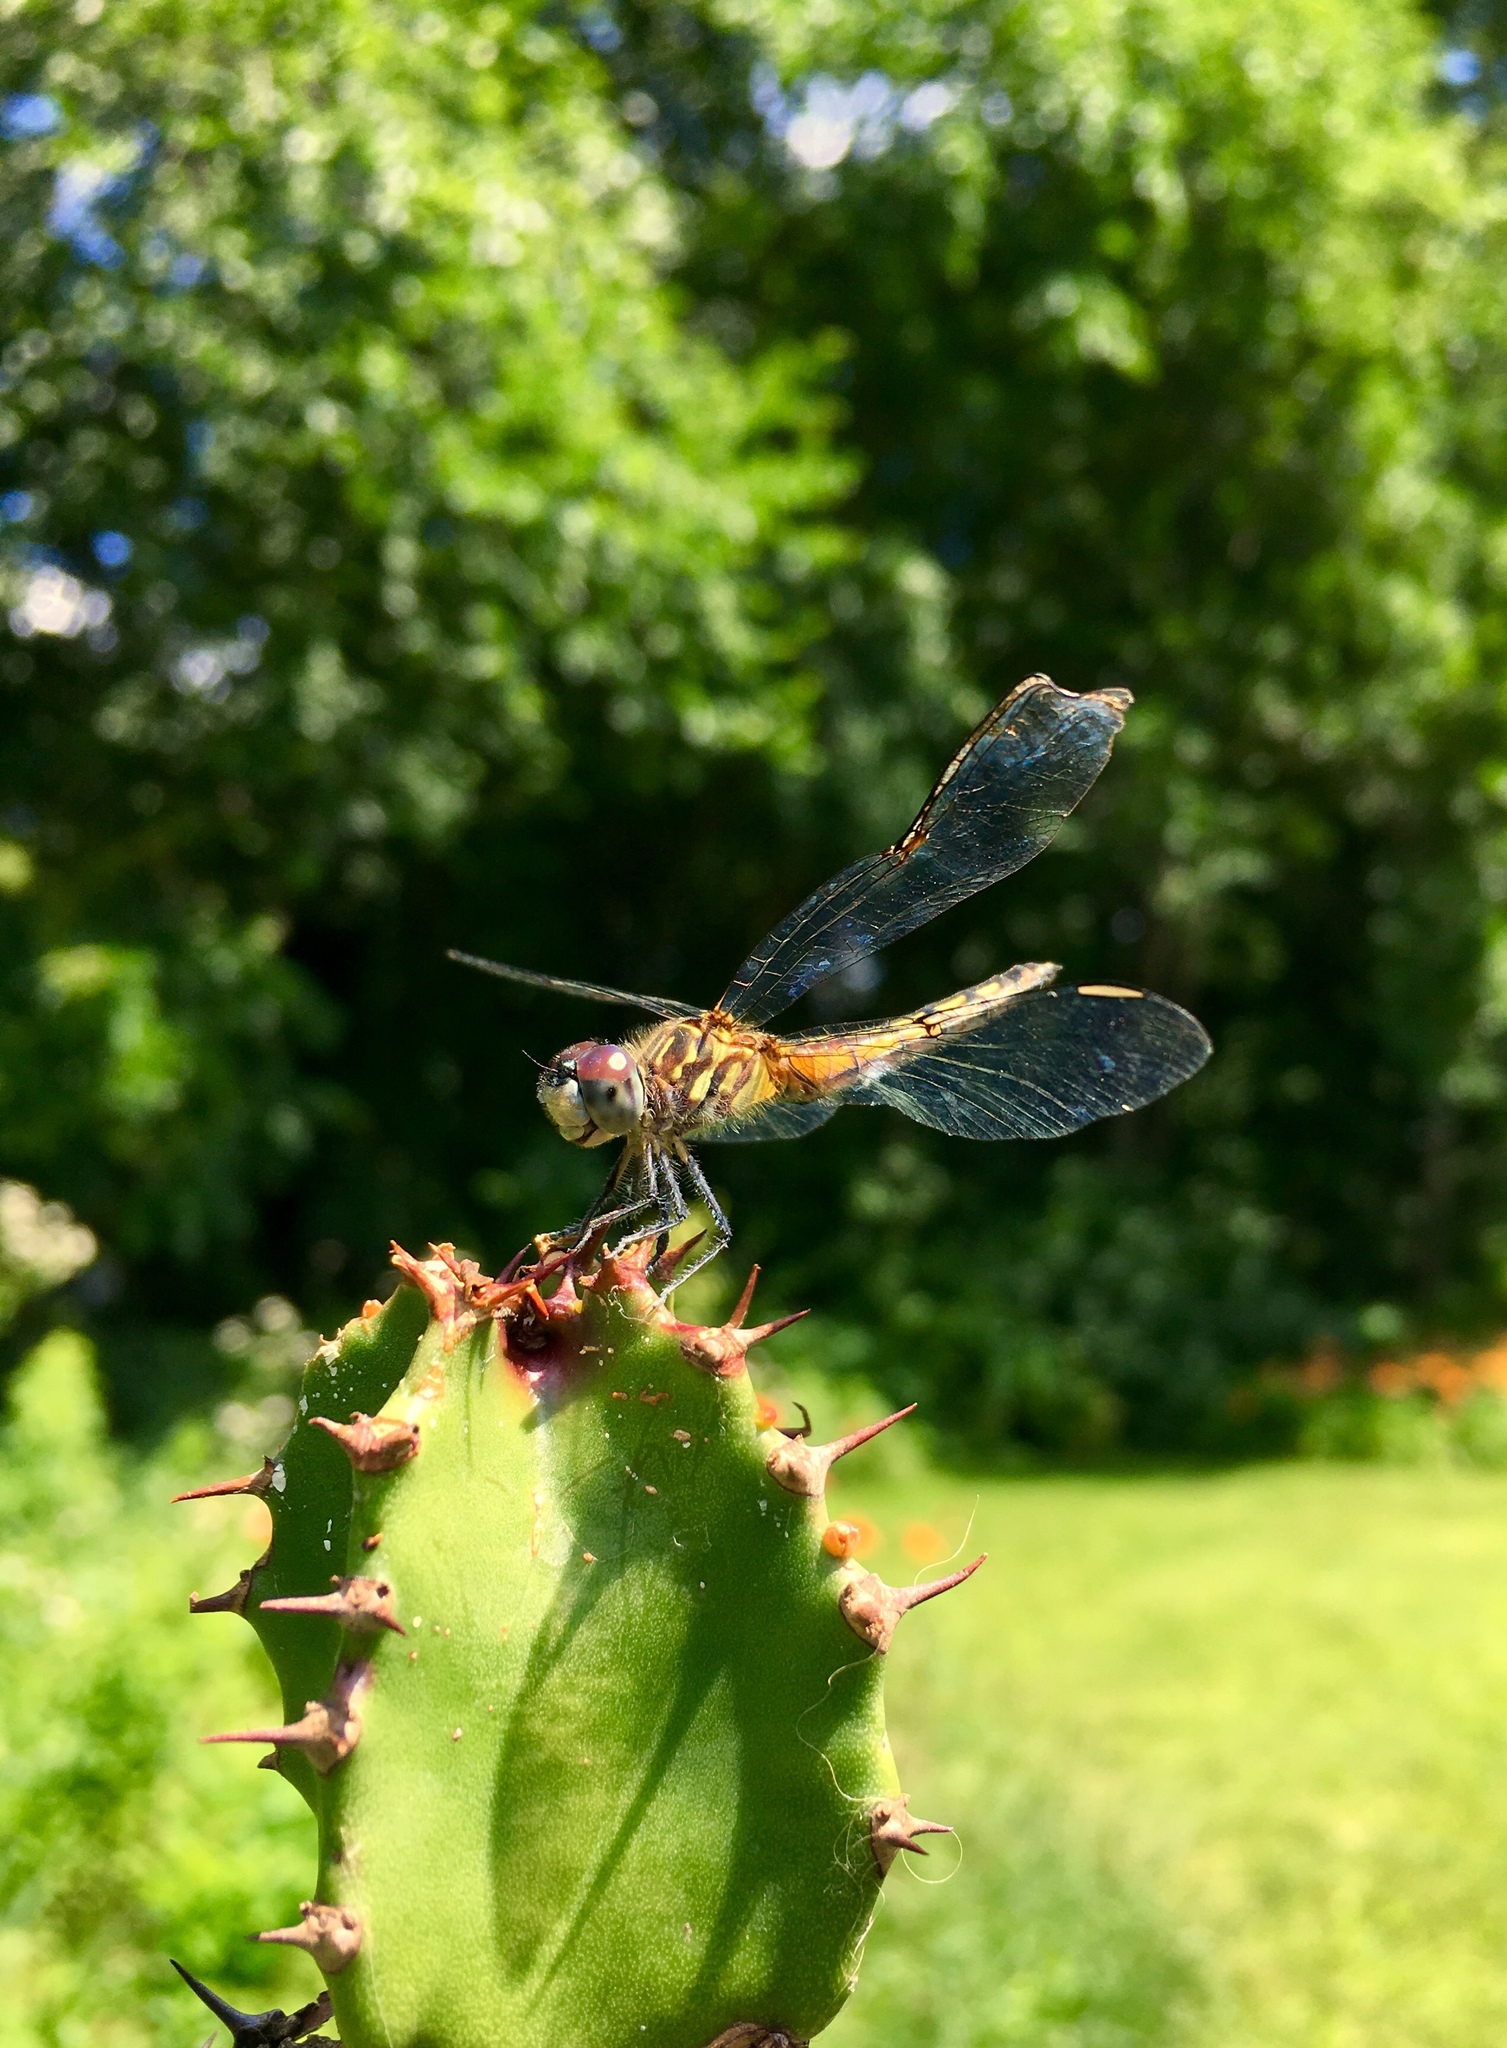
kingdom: Animalia
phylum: Arthropoda
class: Insecta
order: Odonata
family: Libellulidae
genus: Pachydiplax
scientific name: Pachydiplax longipennis
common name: Blue dasher
